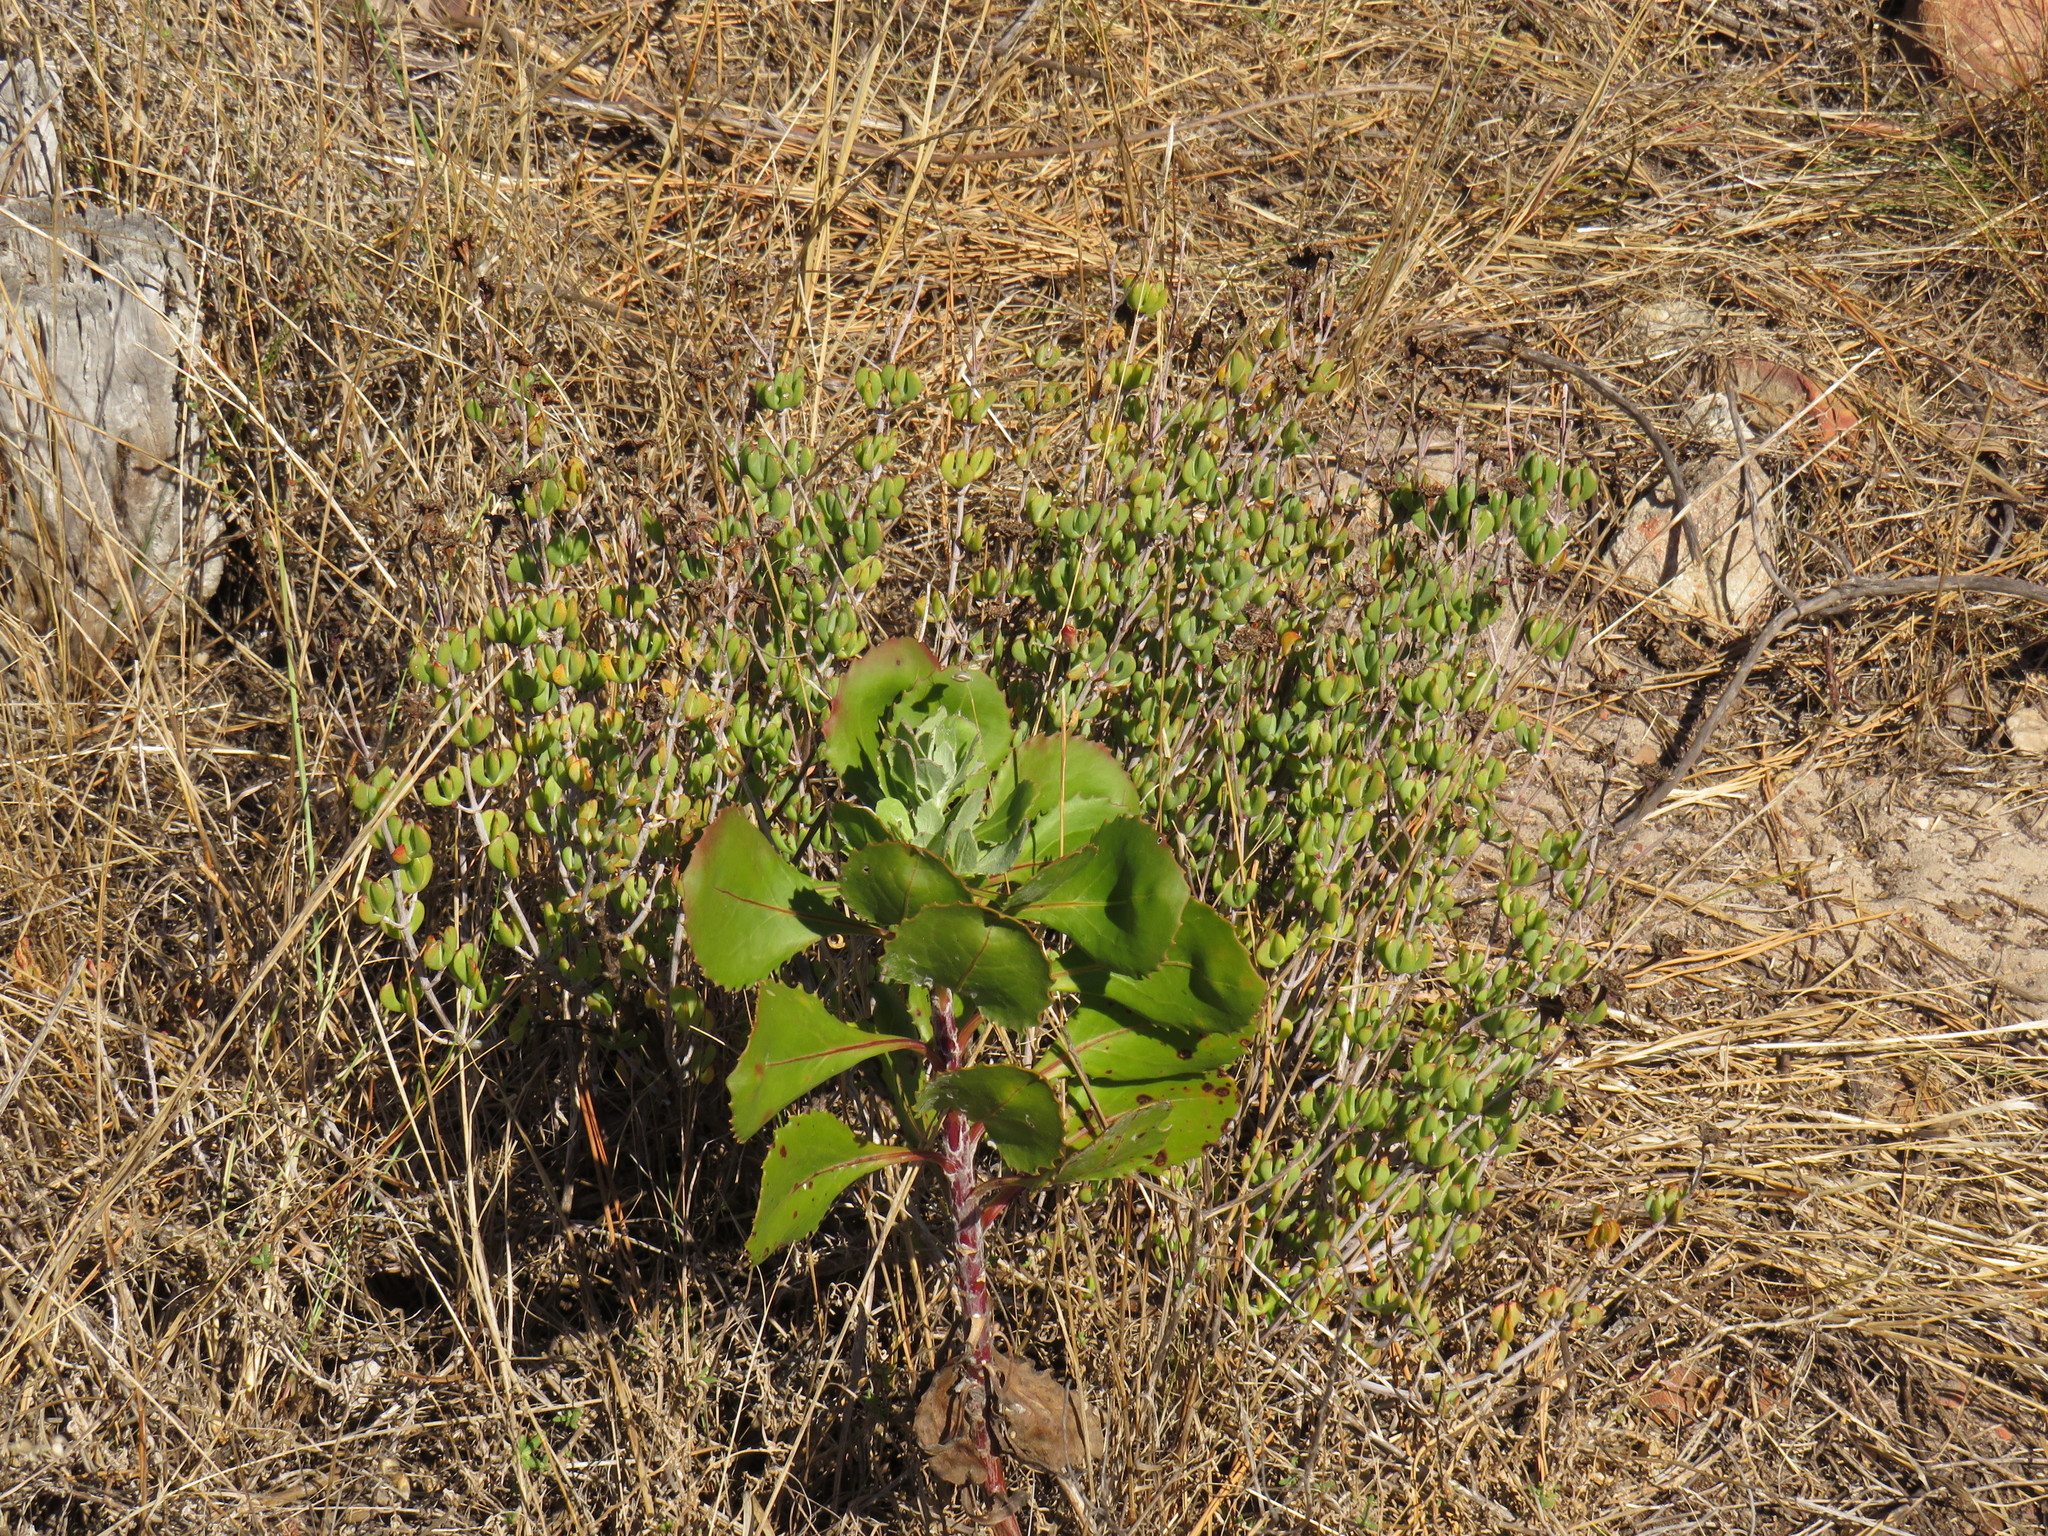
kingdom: Plantae
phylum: Tracheophyta
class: Magnoliopsida
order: Caryophyllales
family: Aizoaceae
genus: Oscularia
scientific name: Oscularia falciformis
